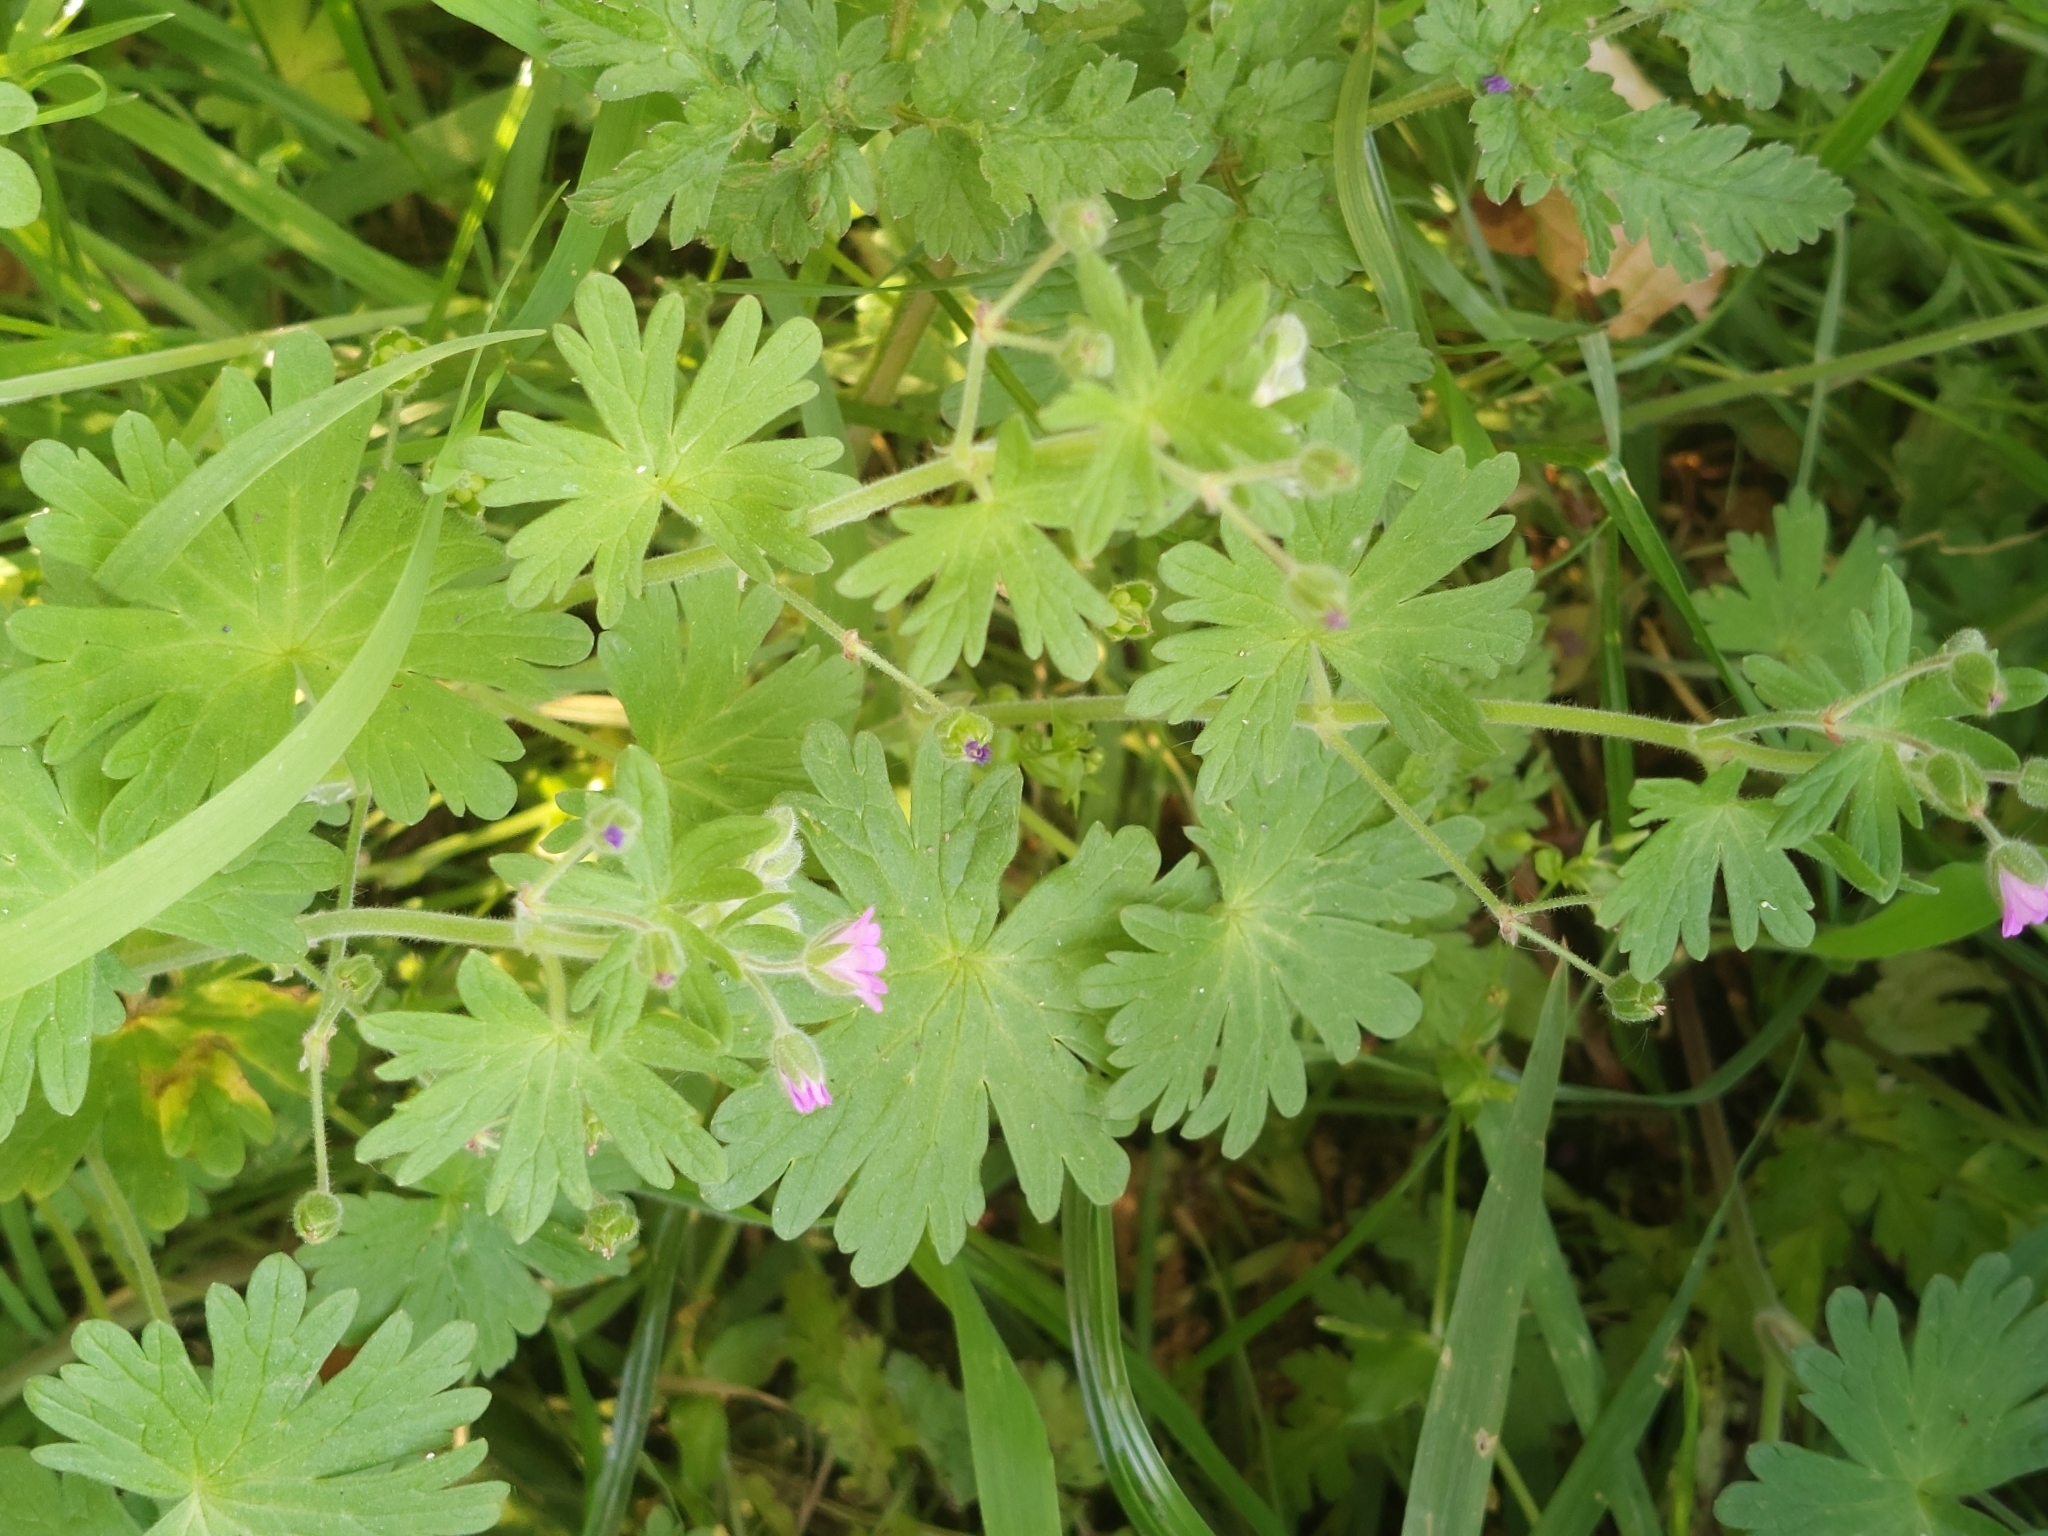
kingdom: Plantae
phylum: Tracheophyta
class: Magnoliopsida
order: Geraniales
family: Geraniaceae
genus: Geranium
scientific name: Geranium pusillum
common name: Small geranium
